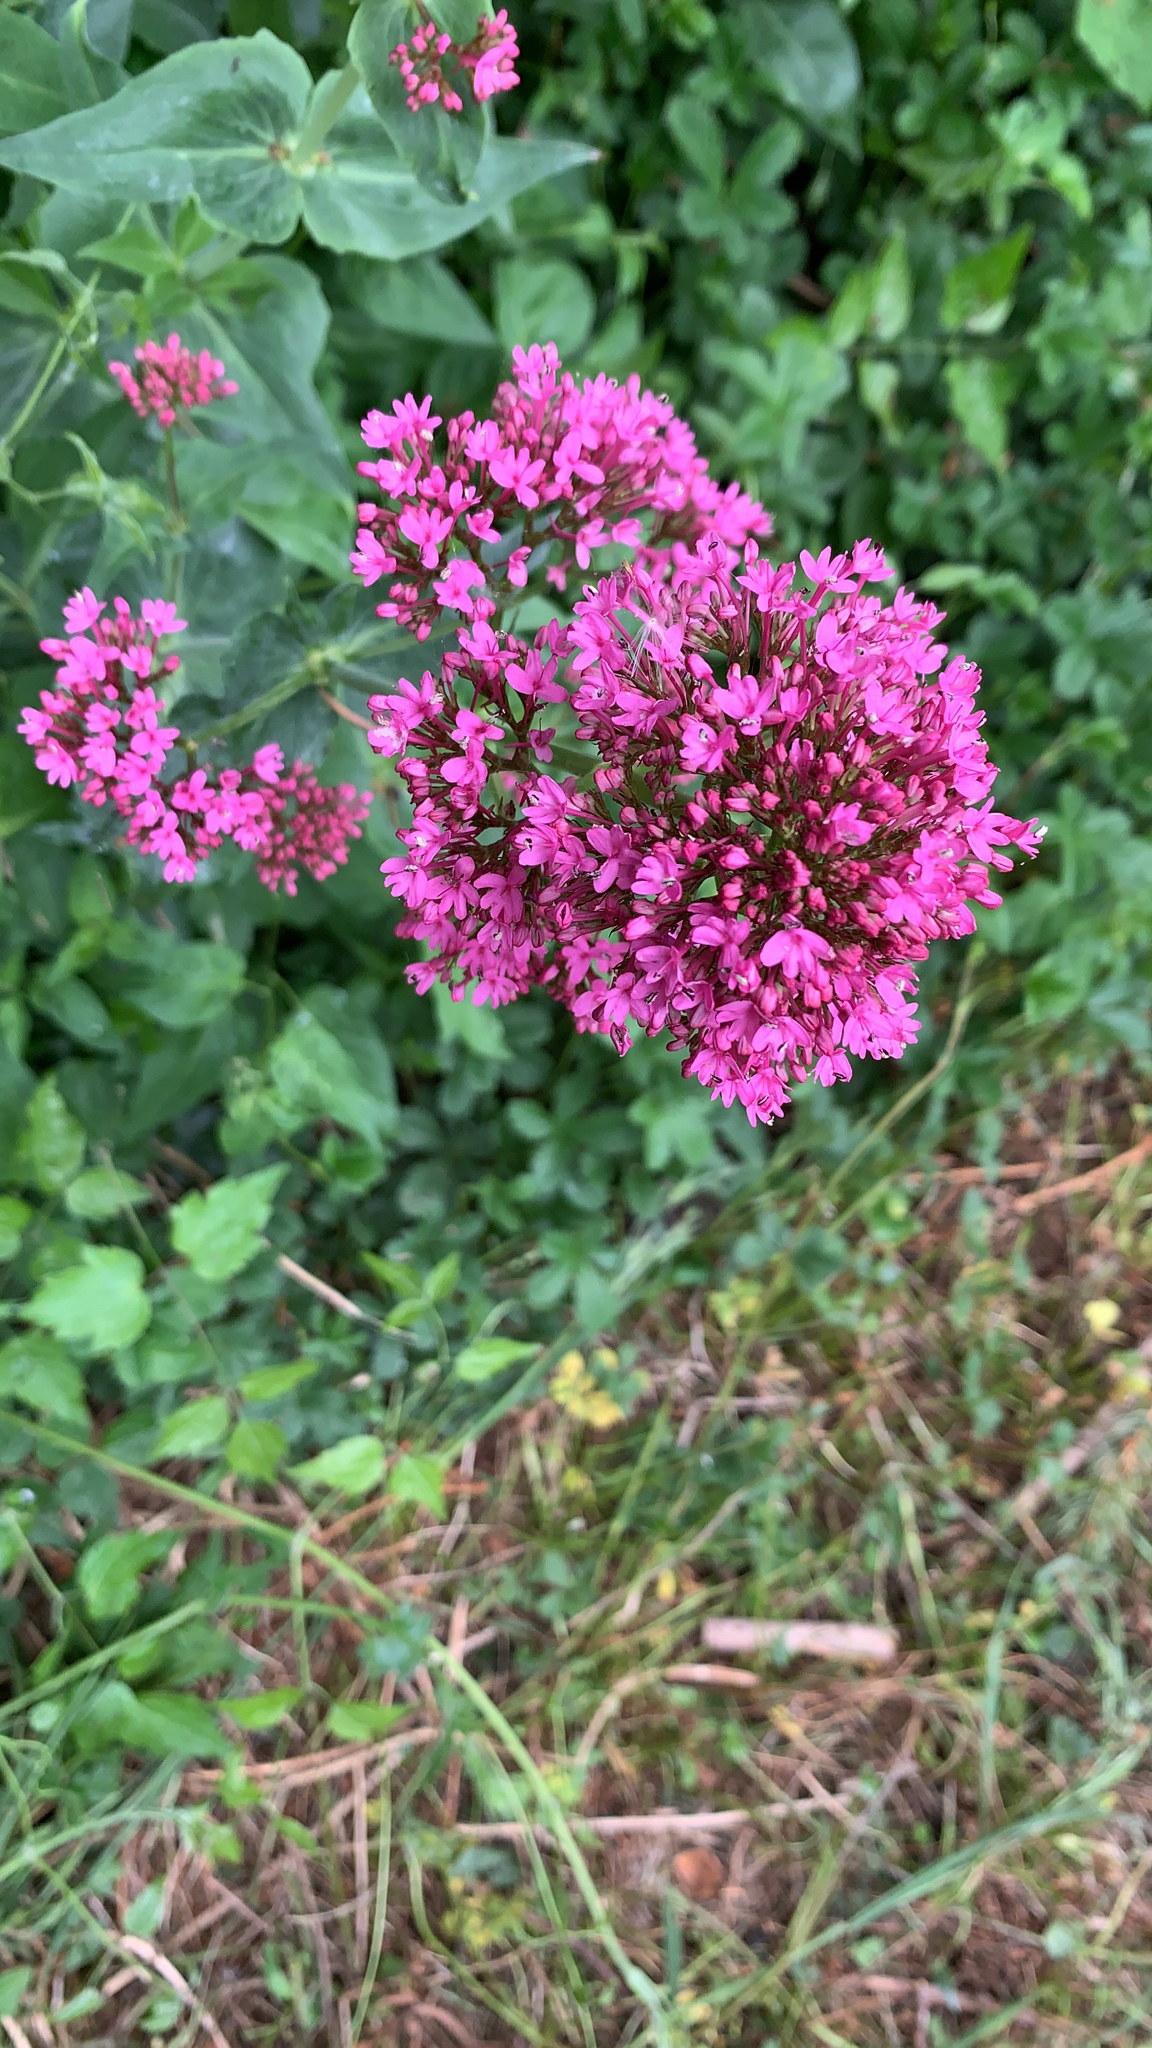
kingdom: Plantae
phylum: Tracheophyta
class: Magnoliopsida
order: Dipsacales
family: Caprifoliaceae
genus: Centranthus
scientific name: Centranthus ruber
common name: Red valerian
